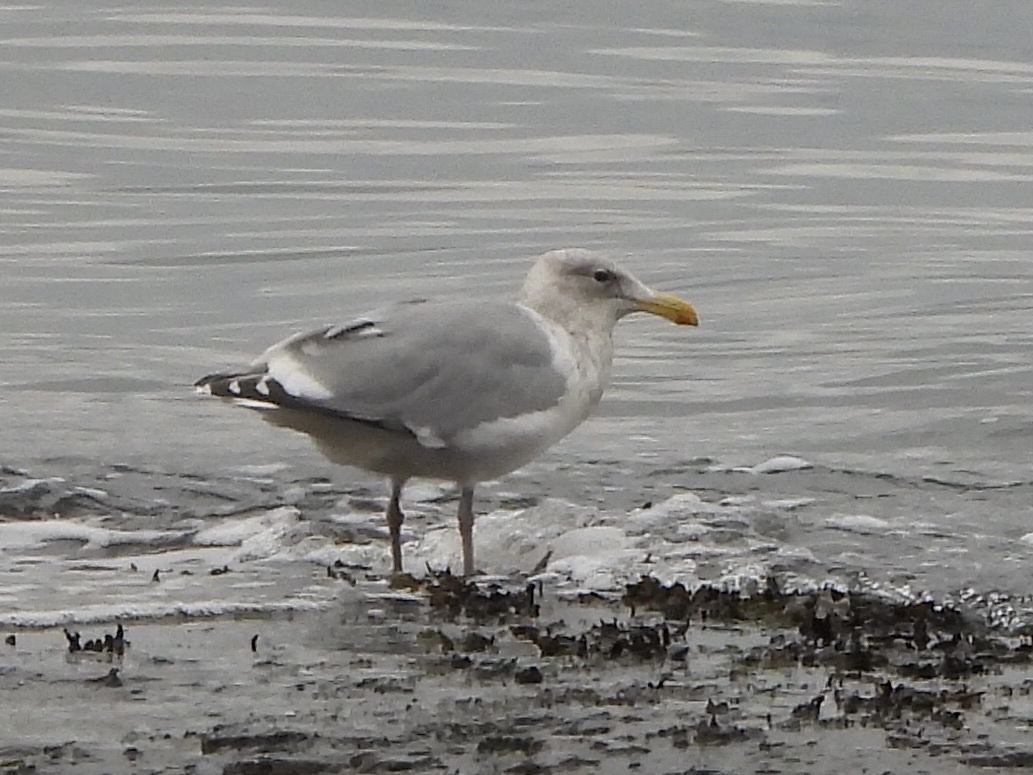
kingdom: Animalia
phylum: Chordata
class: Aves
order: Charadriiformes
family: Laridae
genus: Larus
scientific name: Larus
